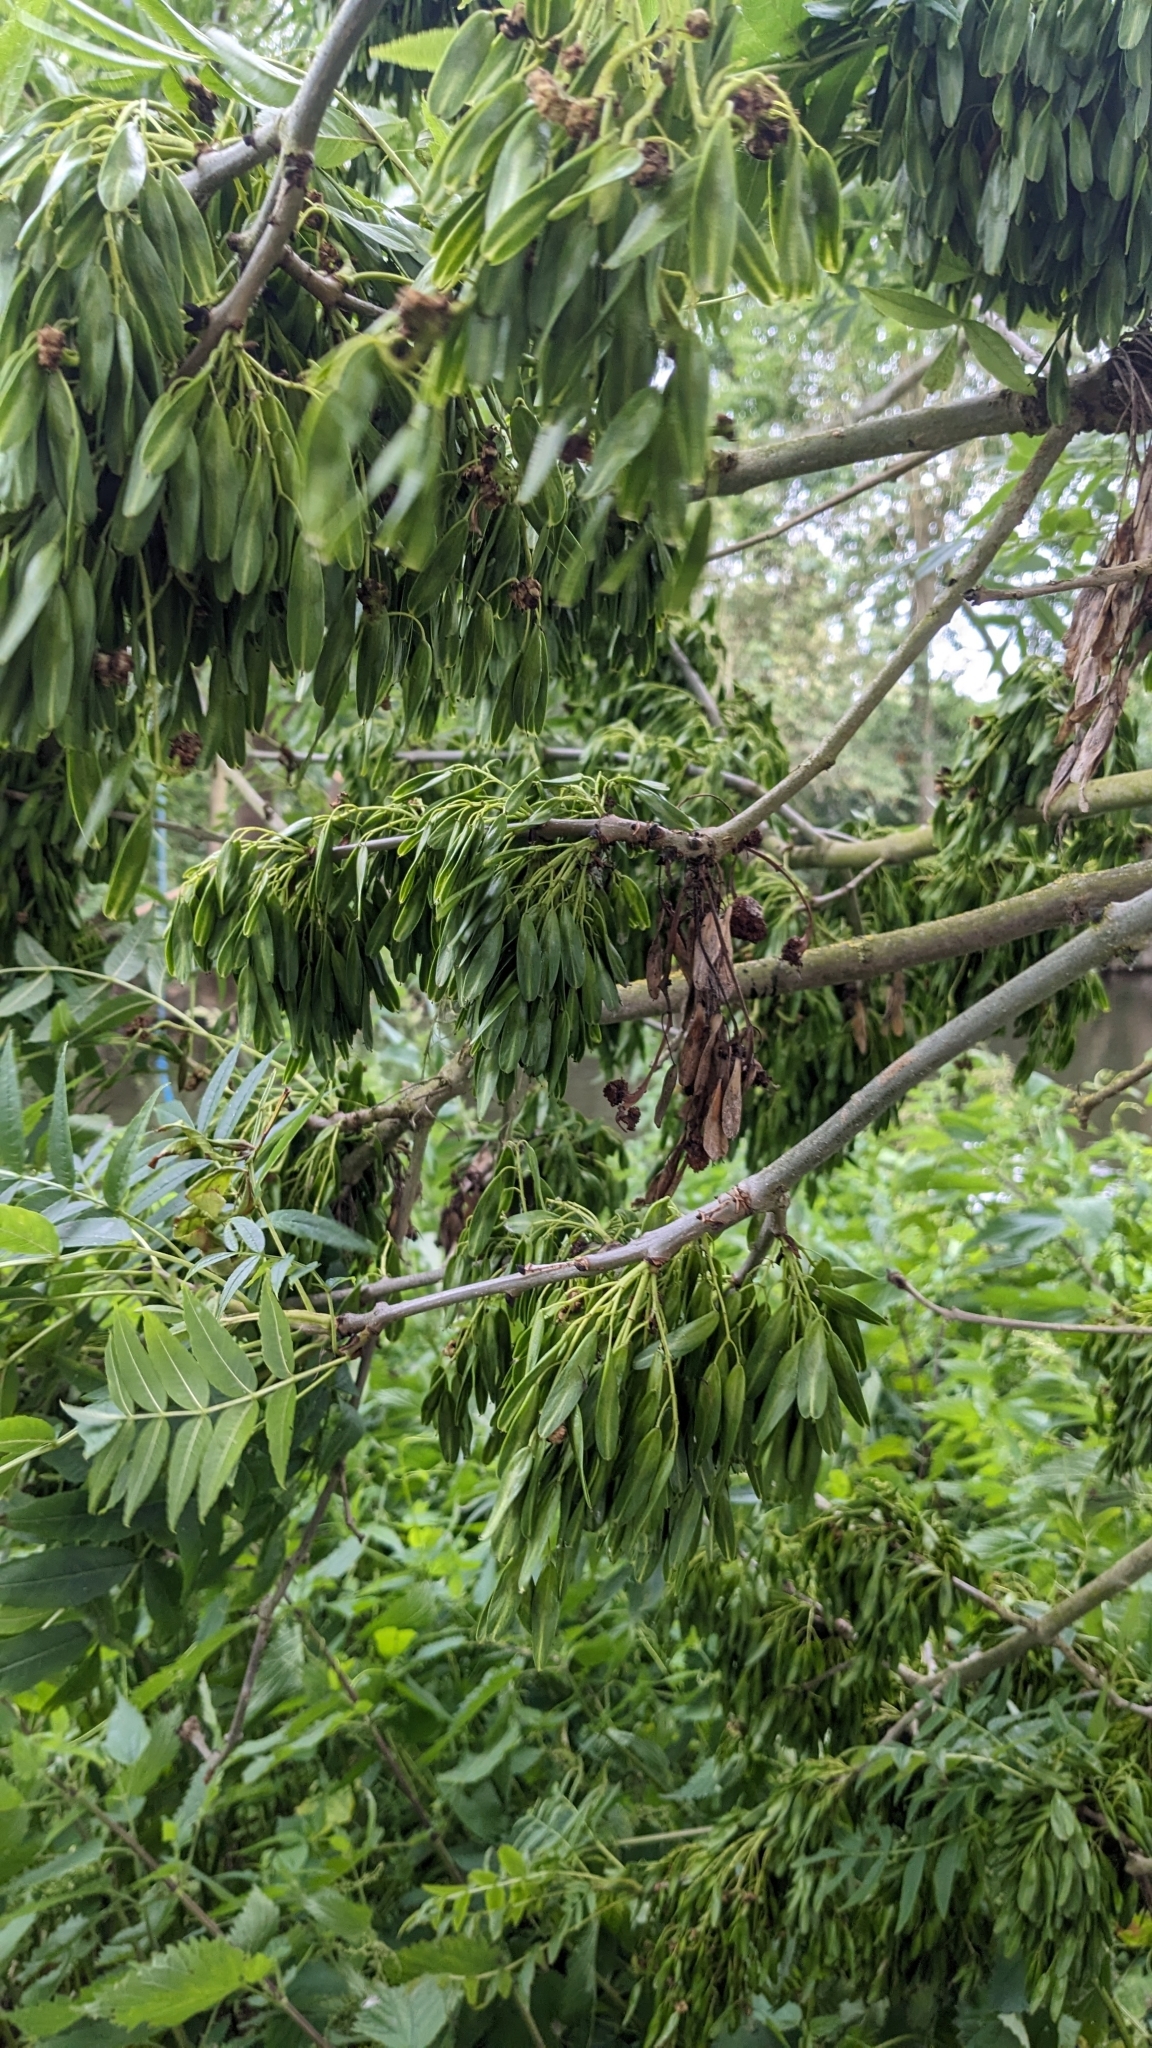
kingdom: Animalia
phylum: Arthropoda
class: Arachnida
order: Trombidiformes
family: Eriophyidae
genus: Aceria
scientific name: Aceria fraxinivora
